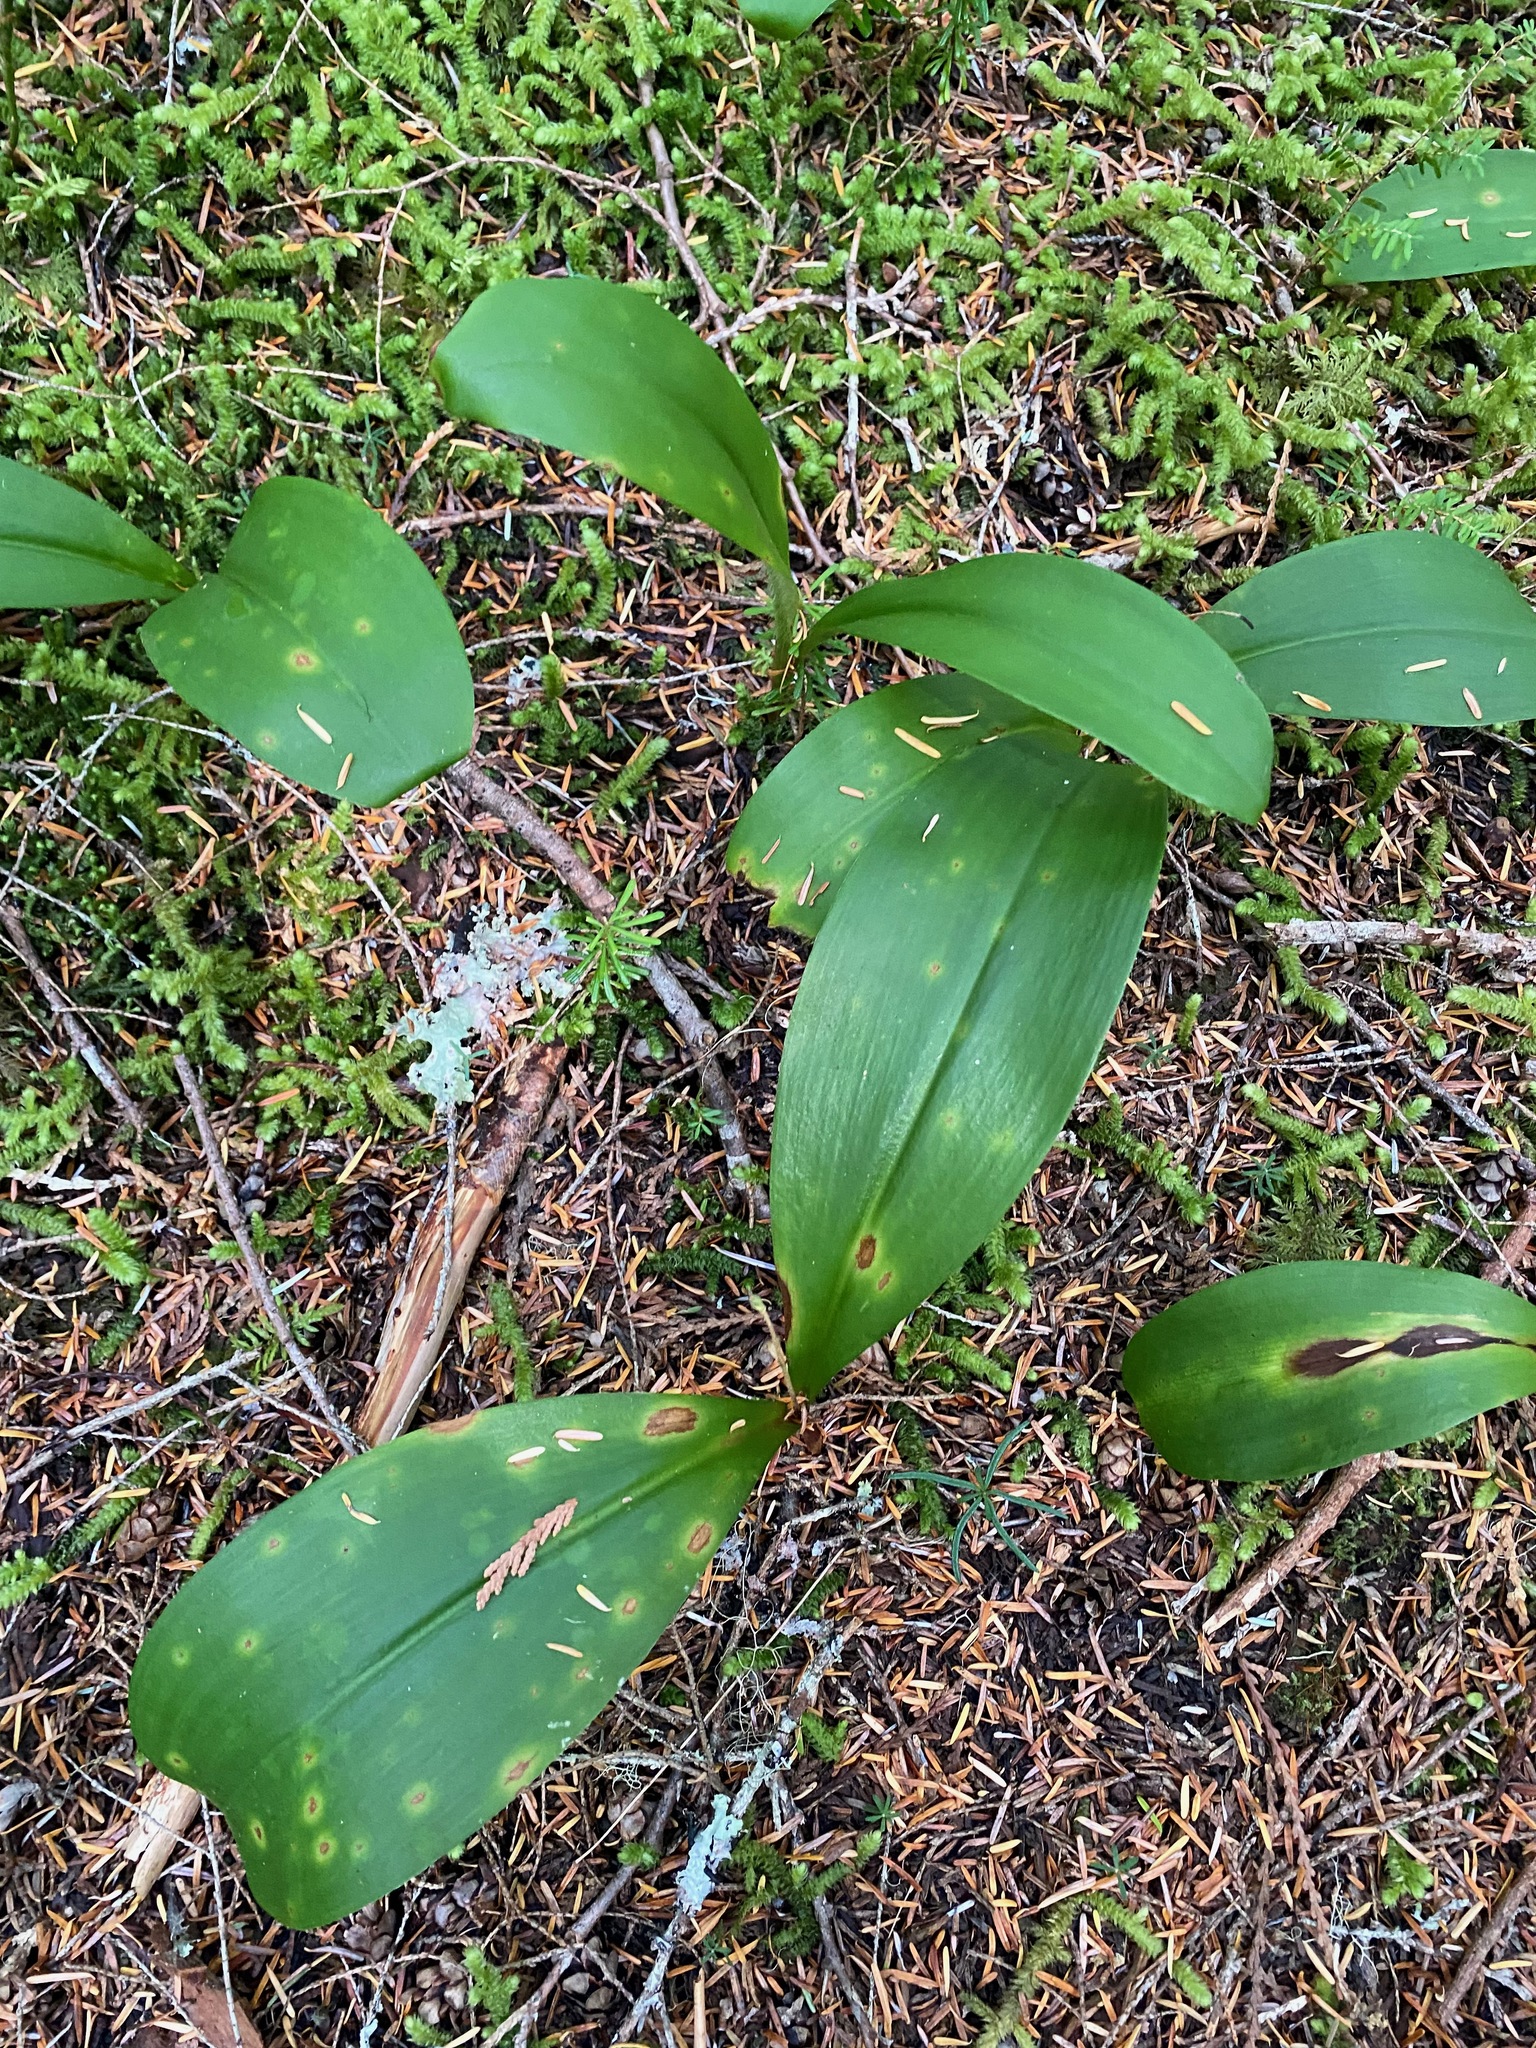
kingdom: Plantae
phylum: Tracheophyta
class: Liliopsida
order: Liliales
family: Liliaceae
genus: Clintonia
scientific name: Clintonia uniflora
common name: Queen's cup
